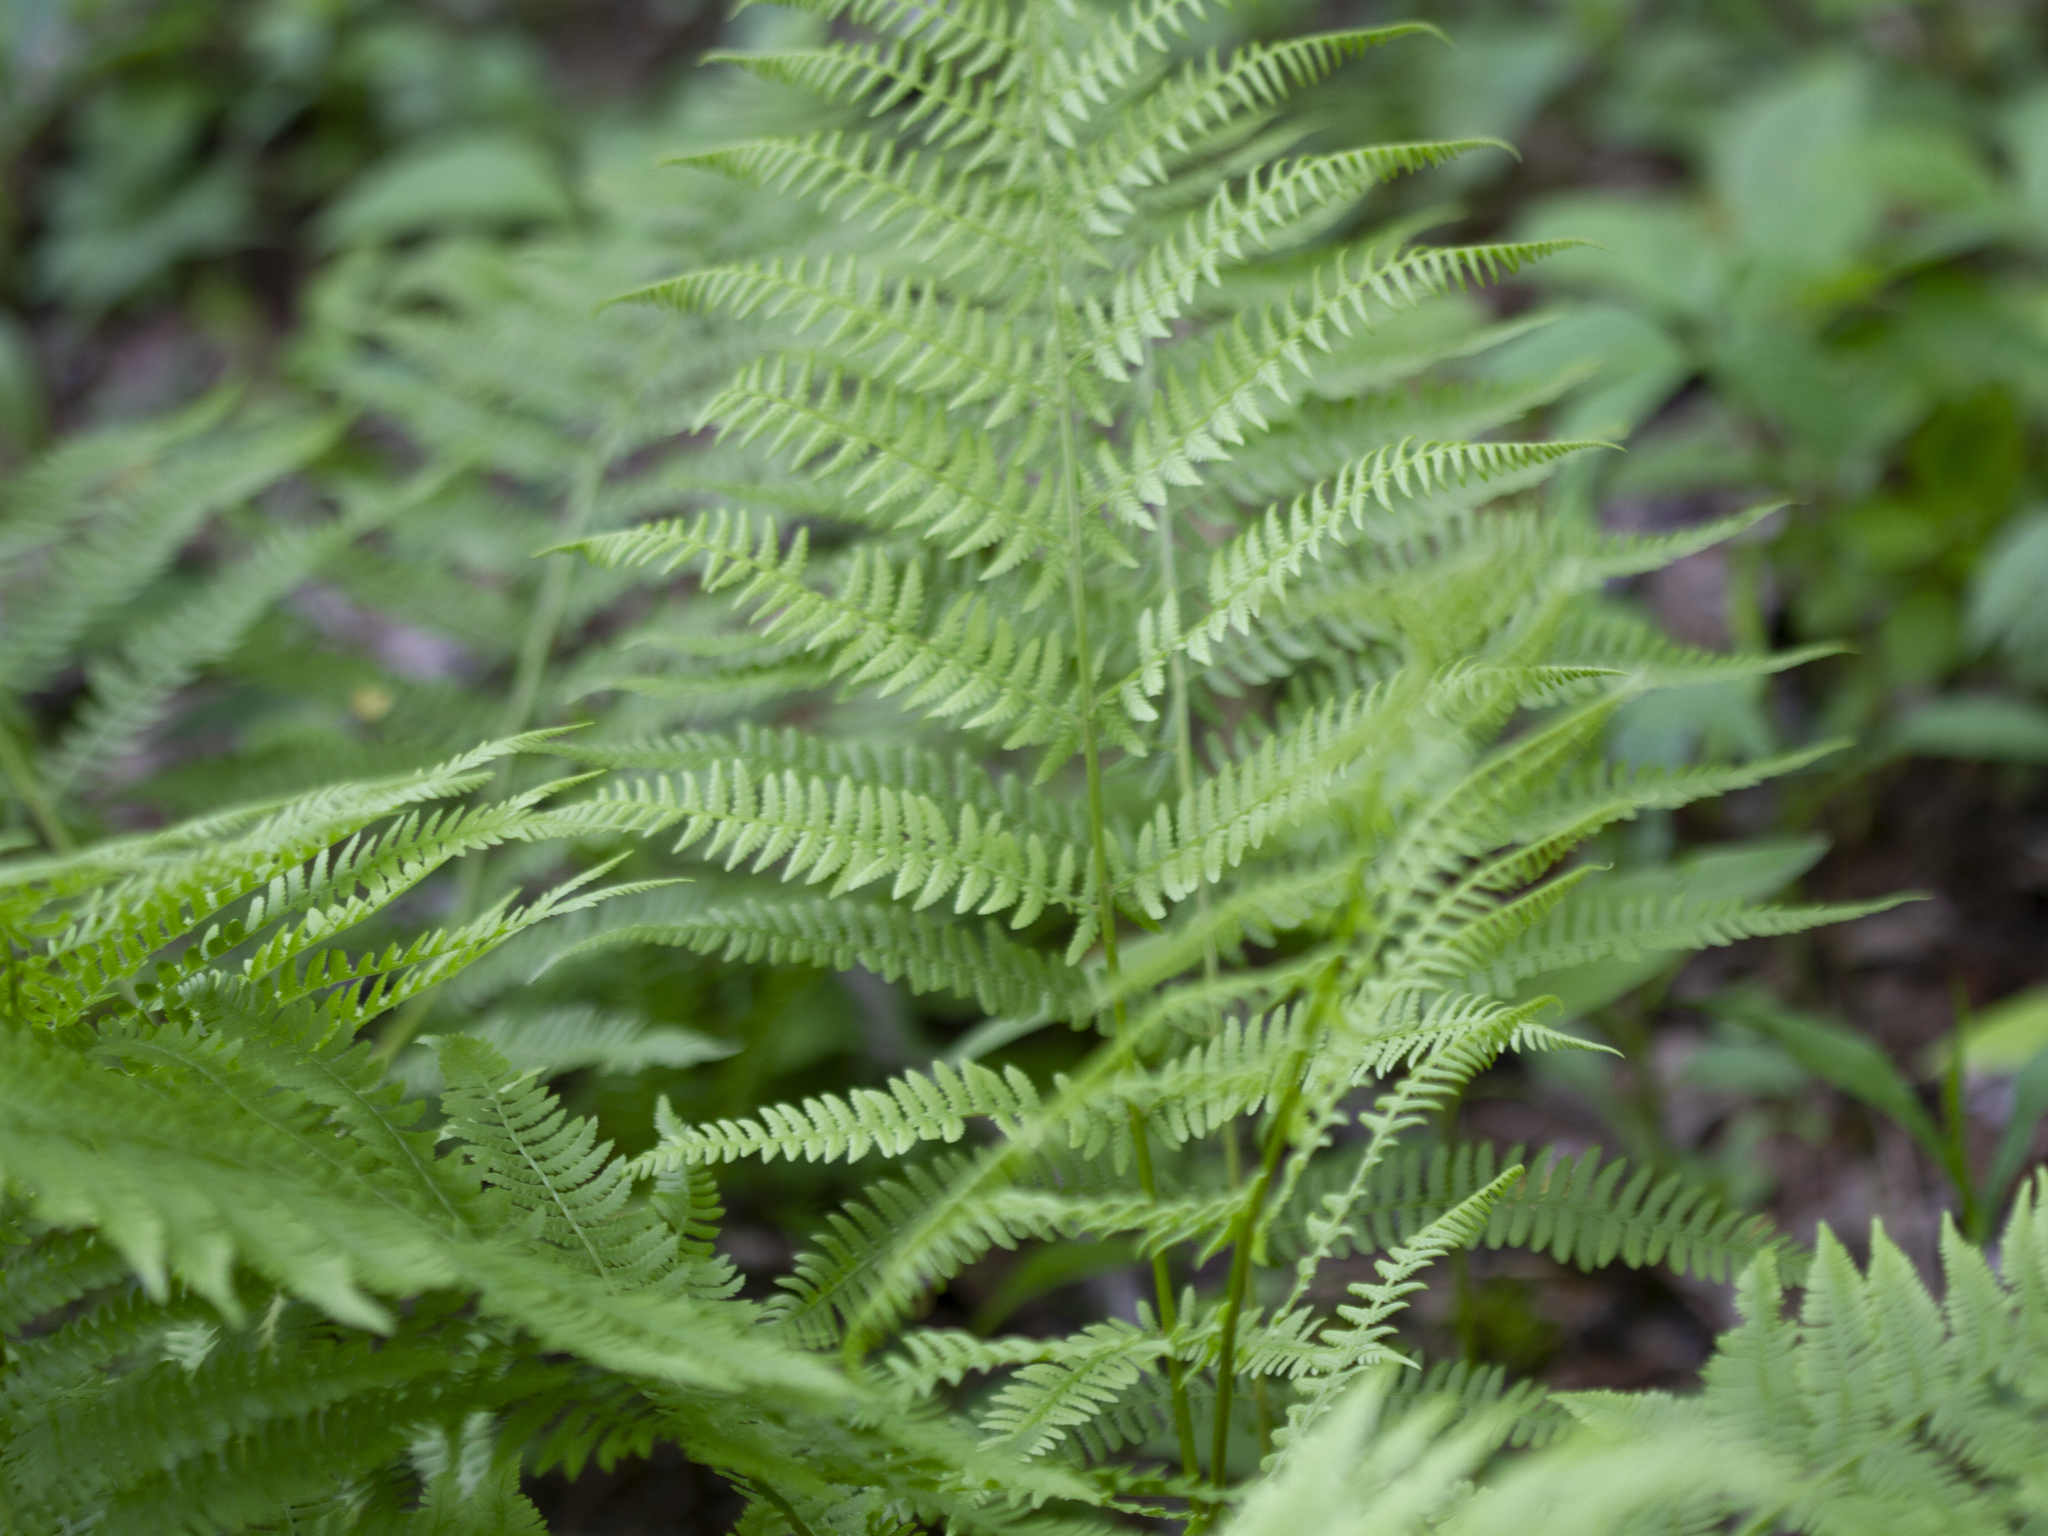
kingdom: Plantae
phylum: Tracheophyta
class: Polypodiopsida
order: Polypodiales
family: Athyriaceae
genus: Athyrium
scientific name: Athyrium angustum
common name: Northern lady fern
